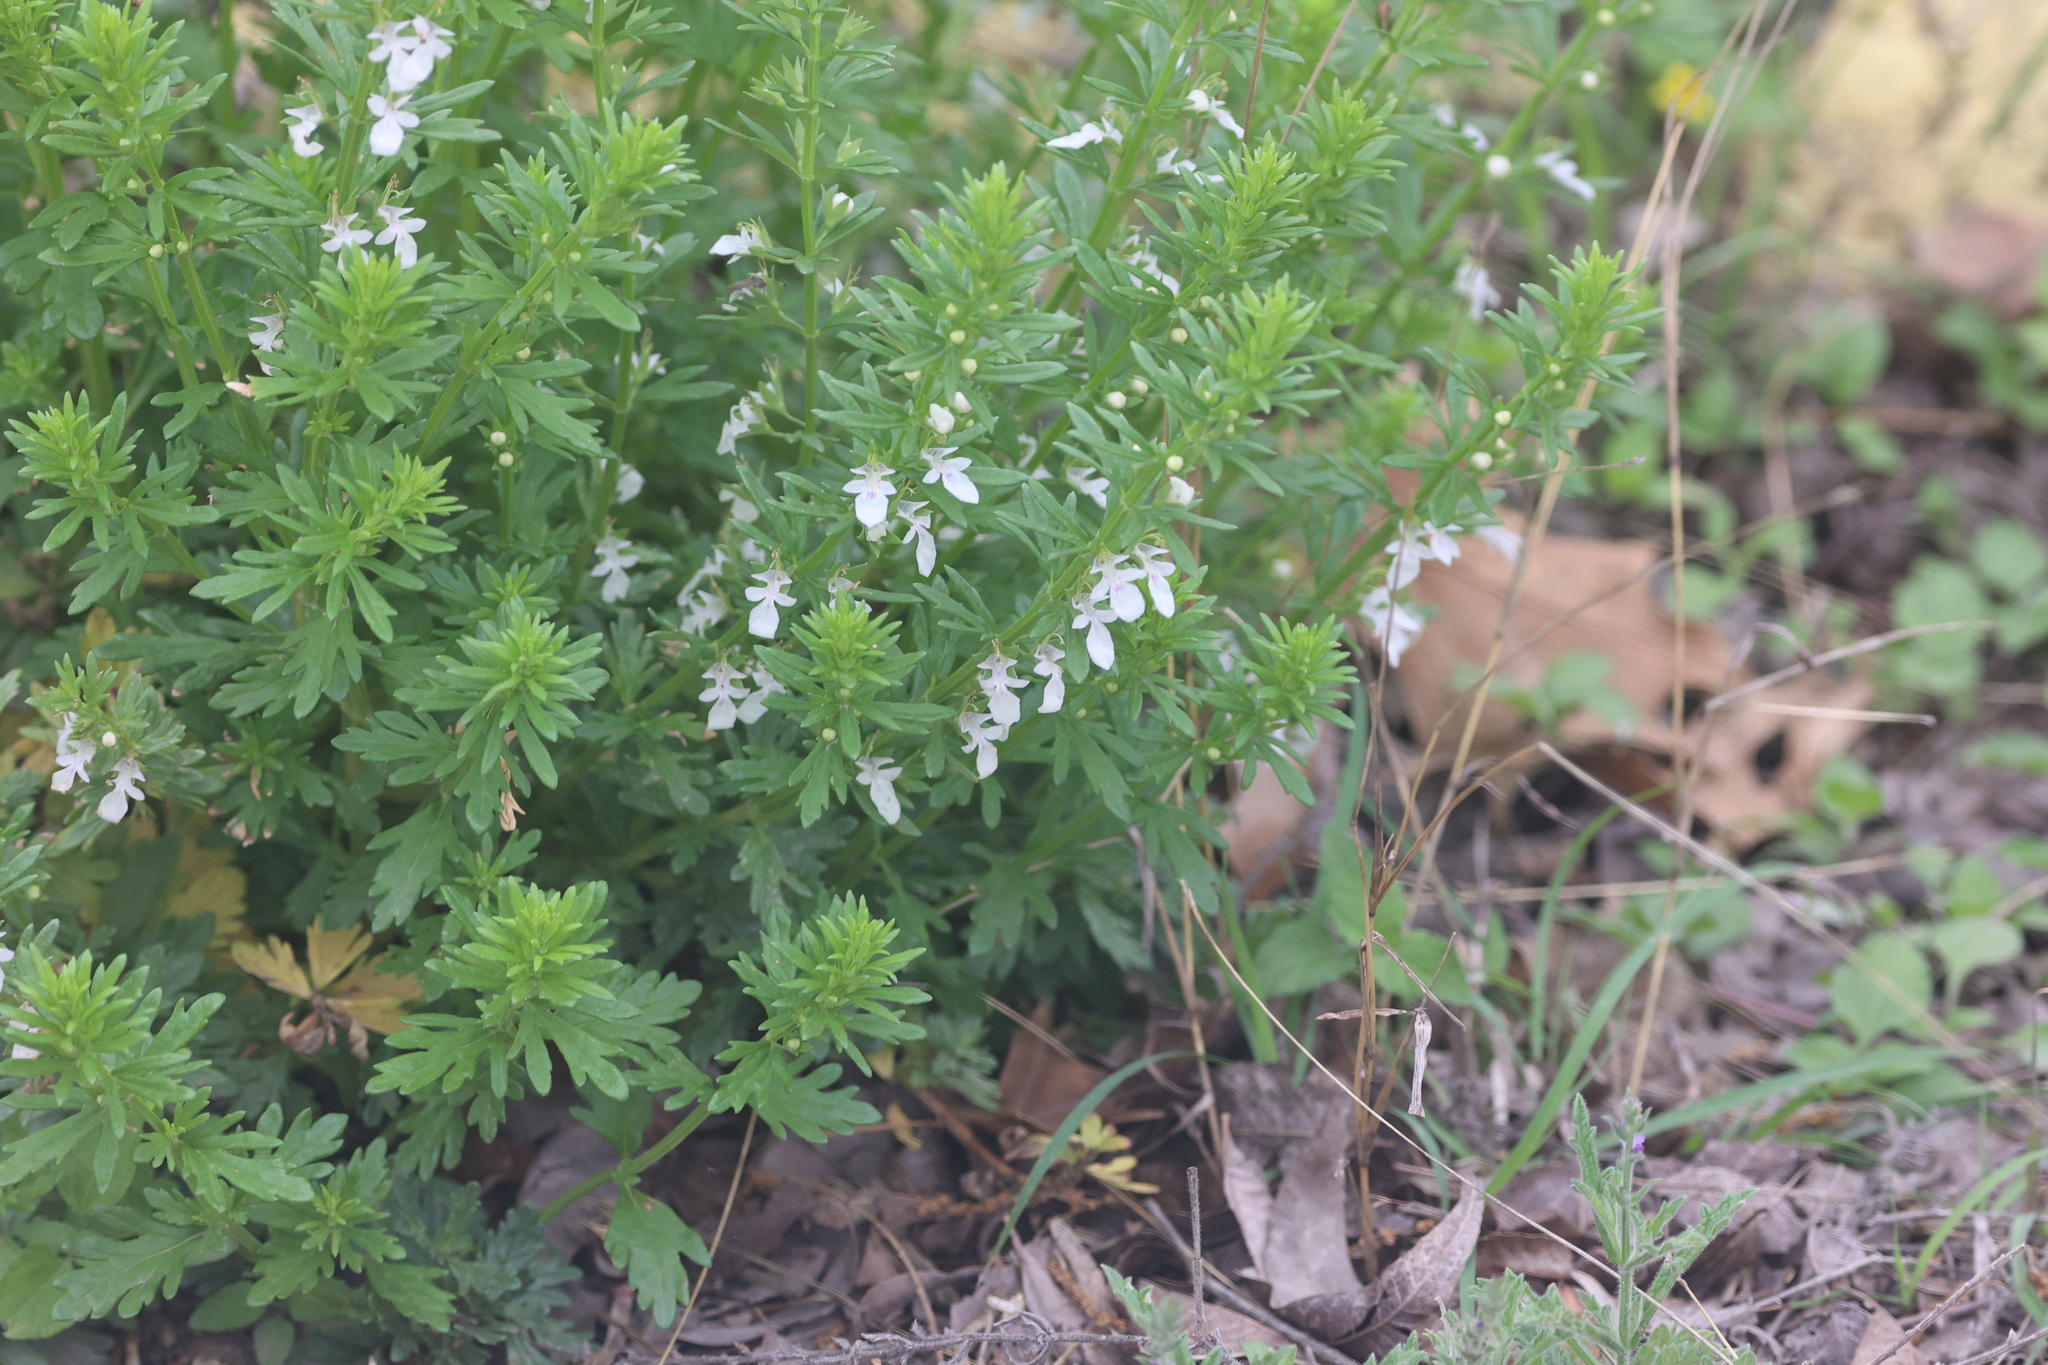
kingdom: Plantae
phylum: Tracheophyta
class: Magnoliopsida
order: Lamiales
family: Lamiaceae
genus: Teucrium
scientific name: Teucrium cubense
